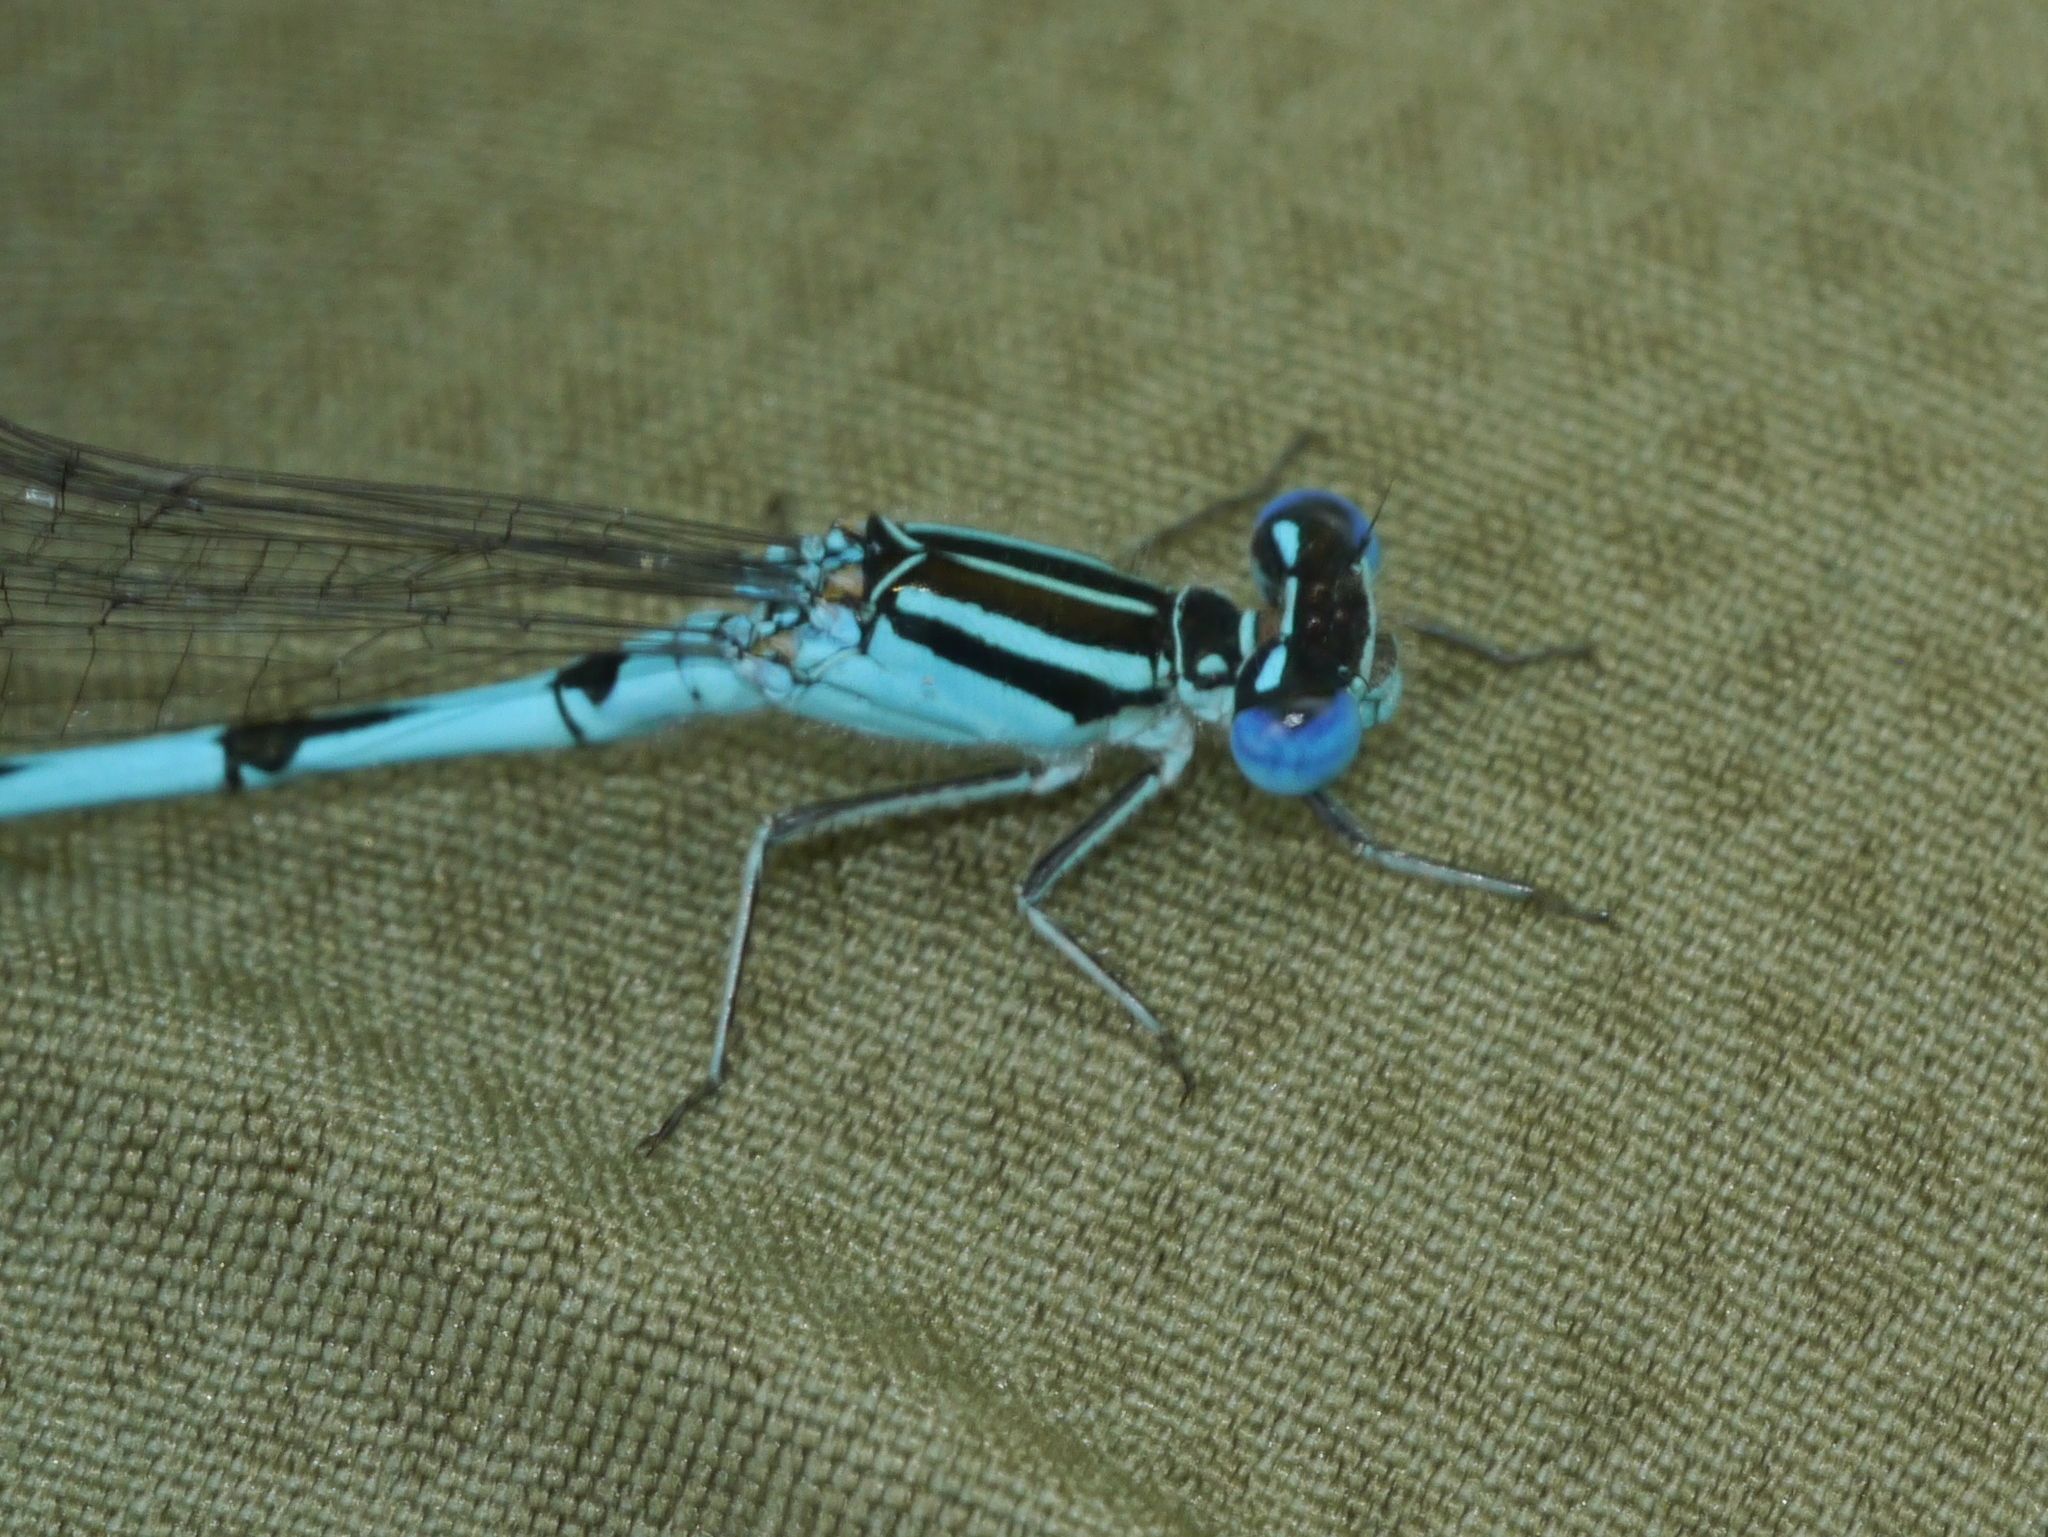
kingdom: Animalia
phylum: Arthropoda
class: Insecta
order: Odonata
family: Coenagrionidae
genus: Enallagma
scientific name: Enallagma durum
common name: Big bluet
